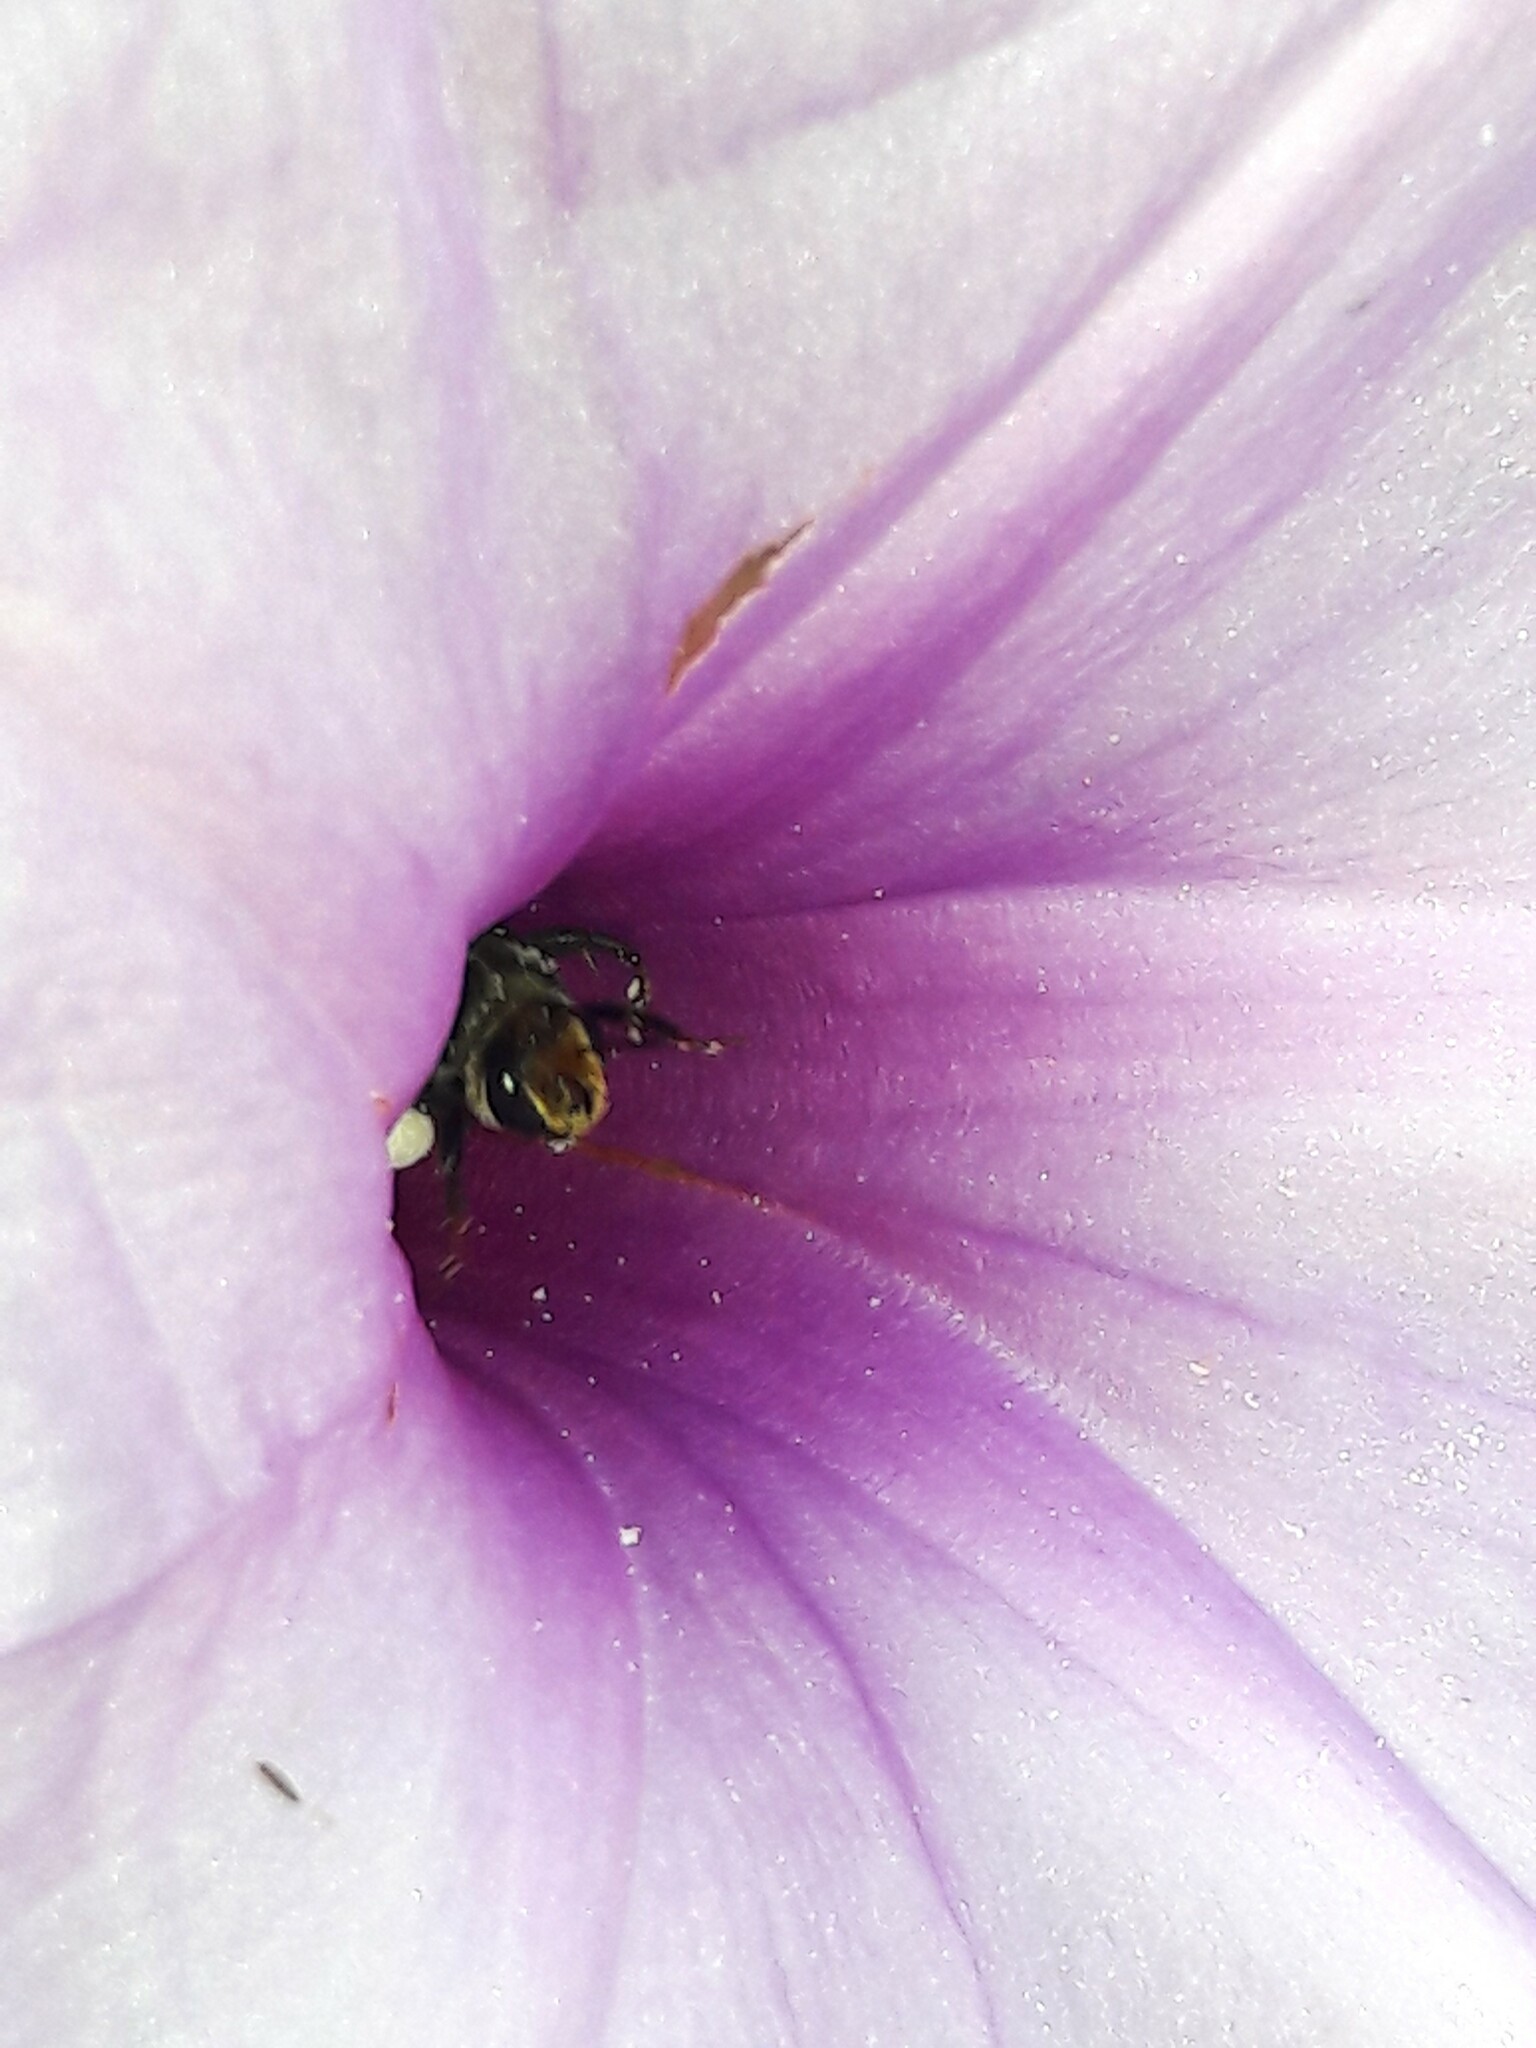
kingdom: Animalia
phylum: Arthropoda
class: Insecta
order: Hymenoptera
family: Apidae
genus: Melitoma
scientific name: Melitoma segmentaria
